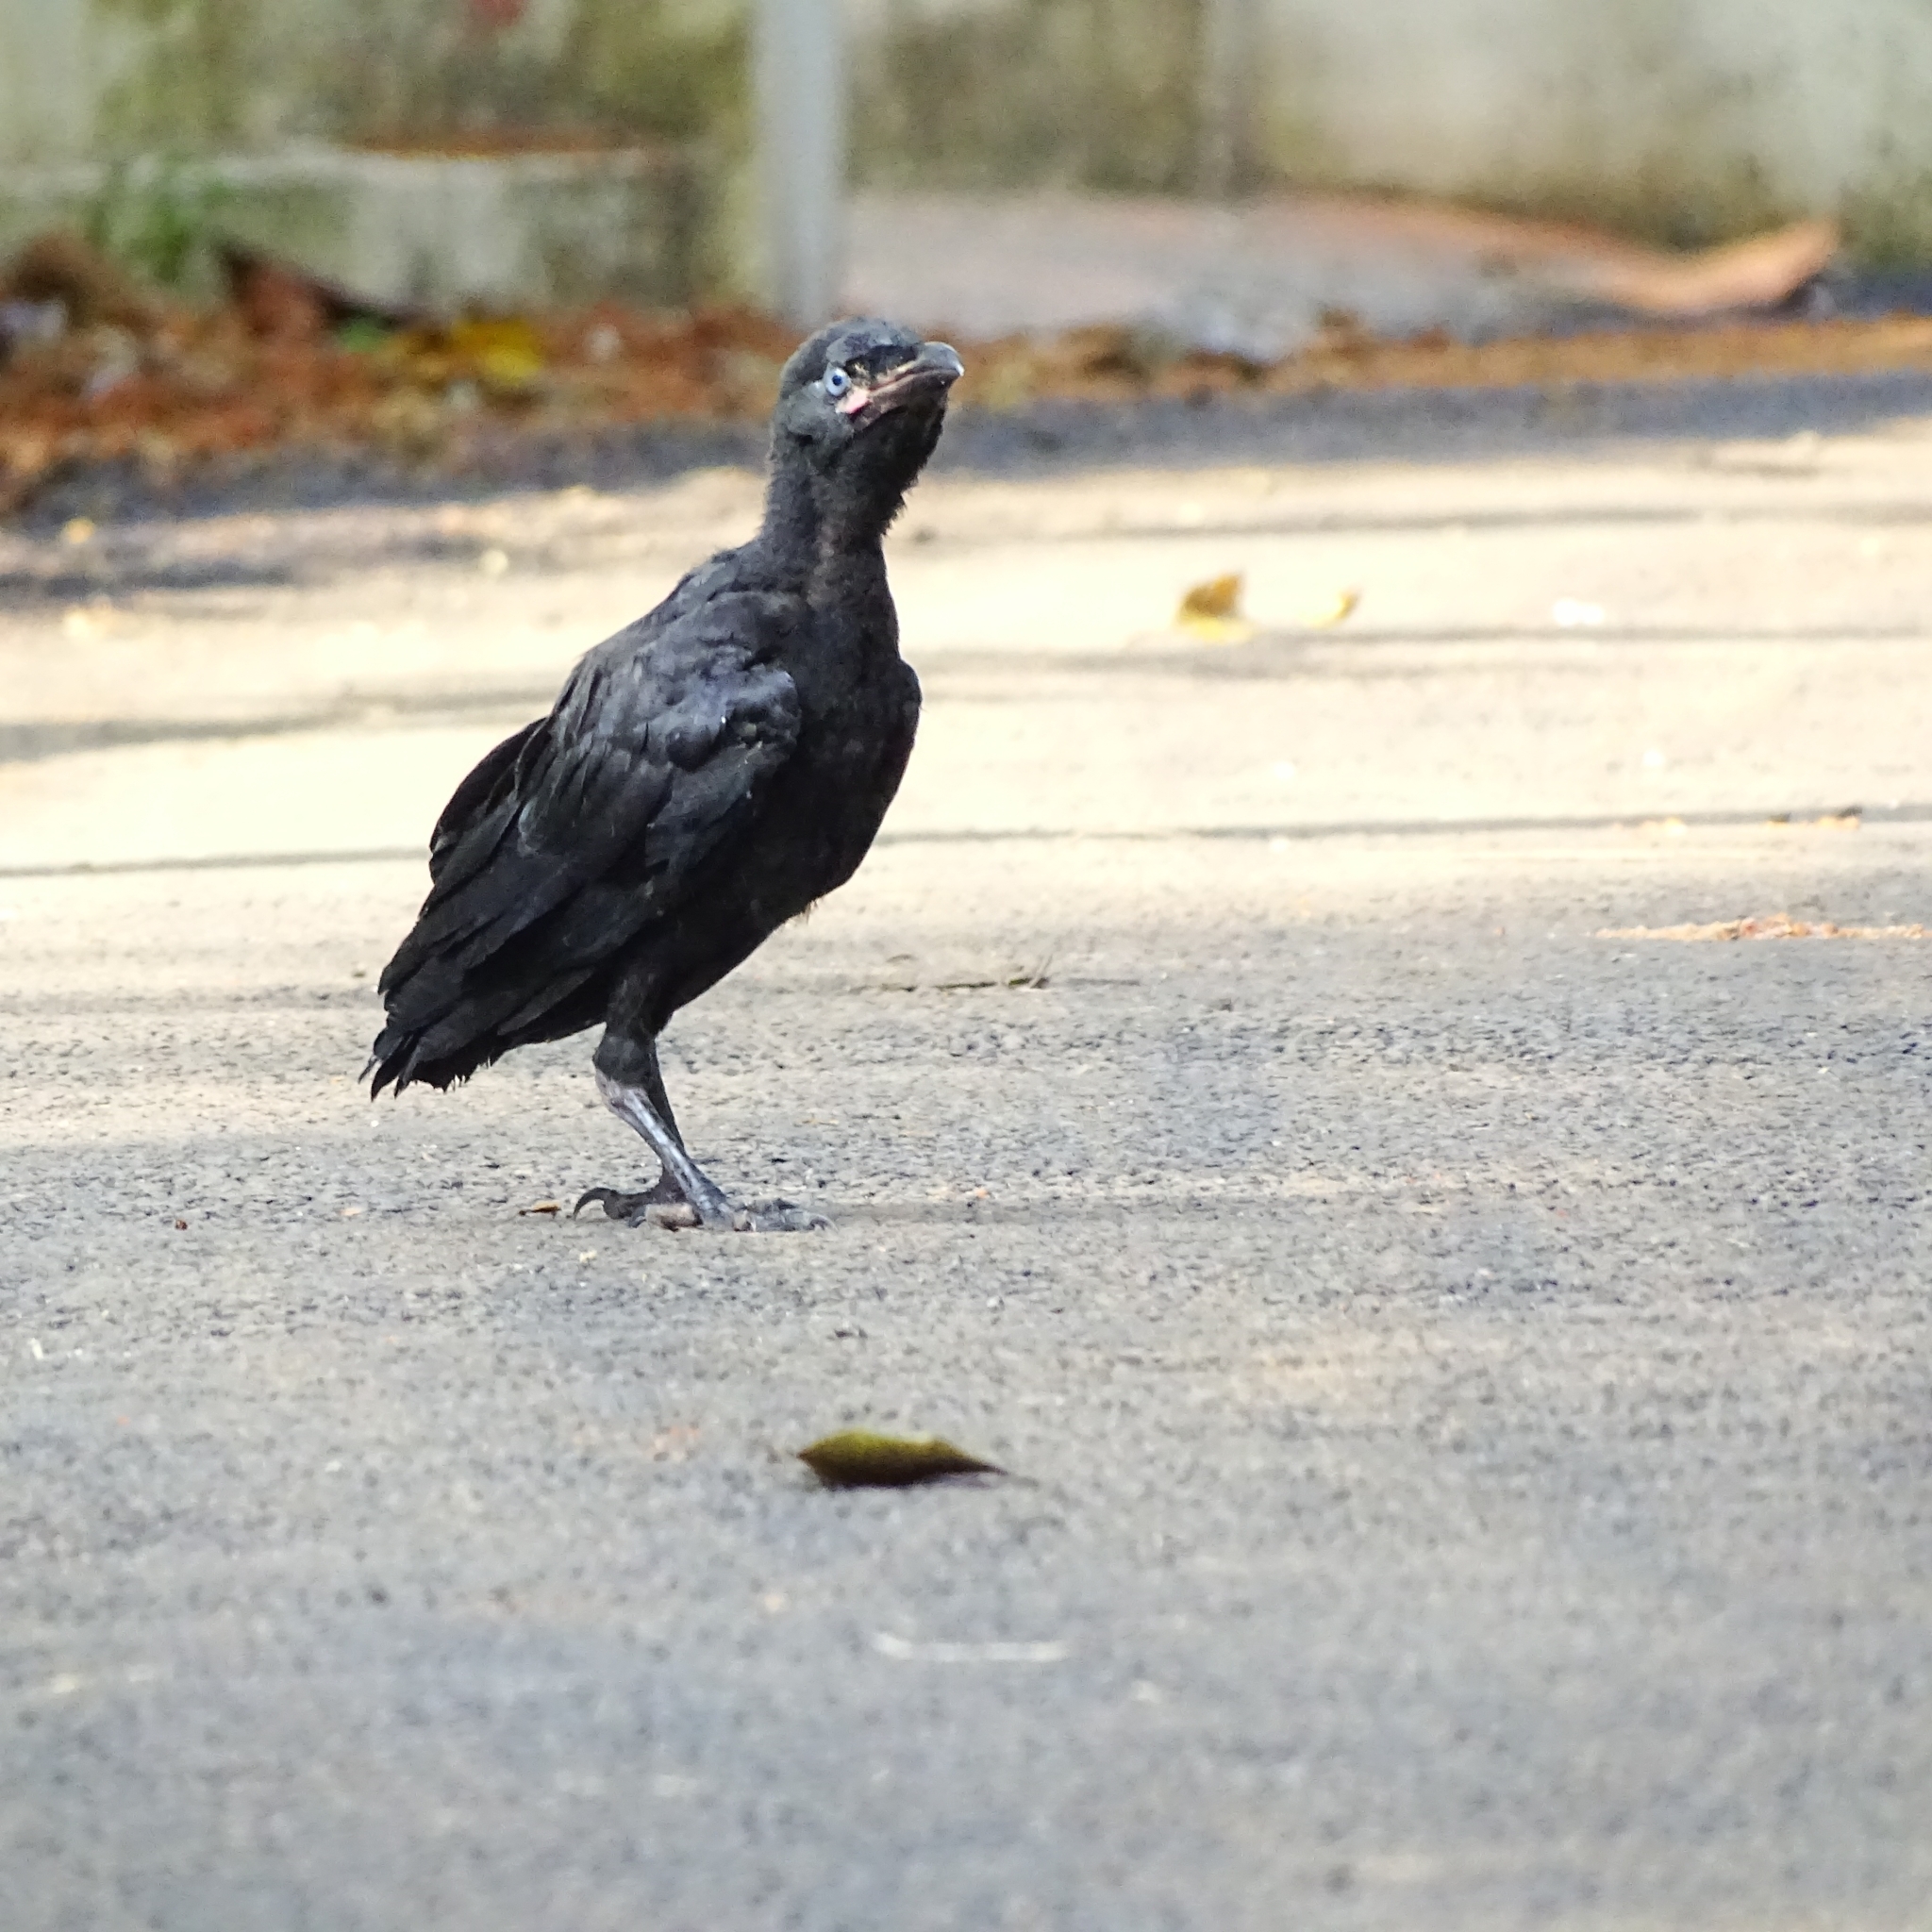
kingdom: Animalia
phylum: Chordata
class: Aves
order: Passeriformes
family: Corvidae
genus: Corvus
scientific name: Corvus macrorhynchos
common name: Large-billed crow
